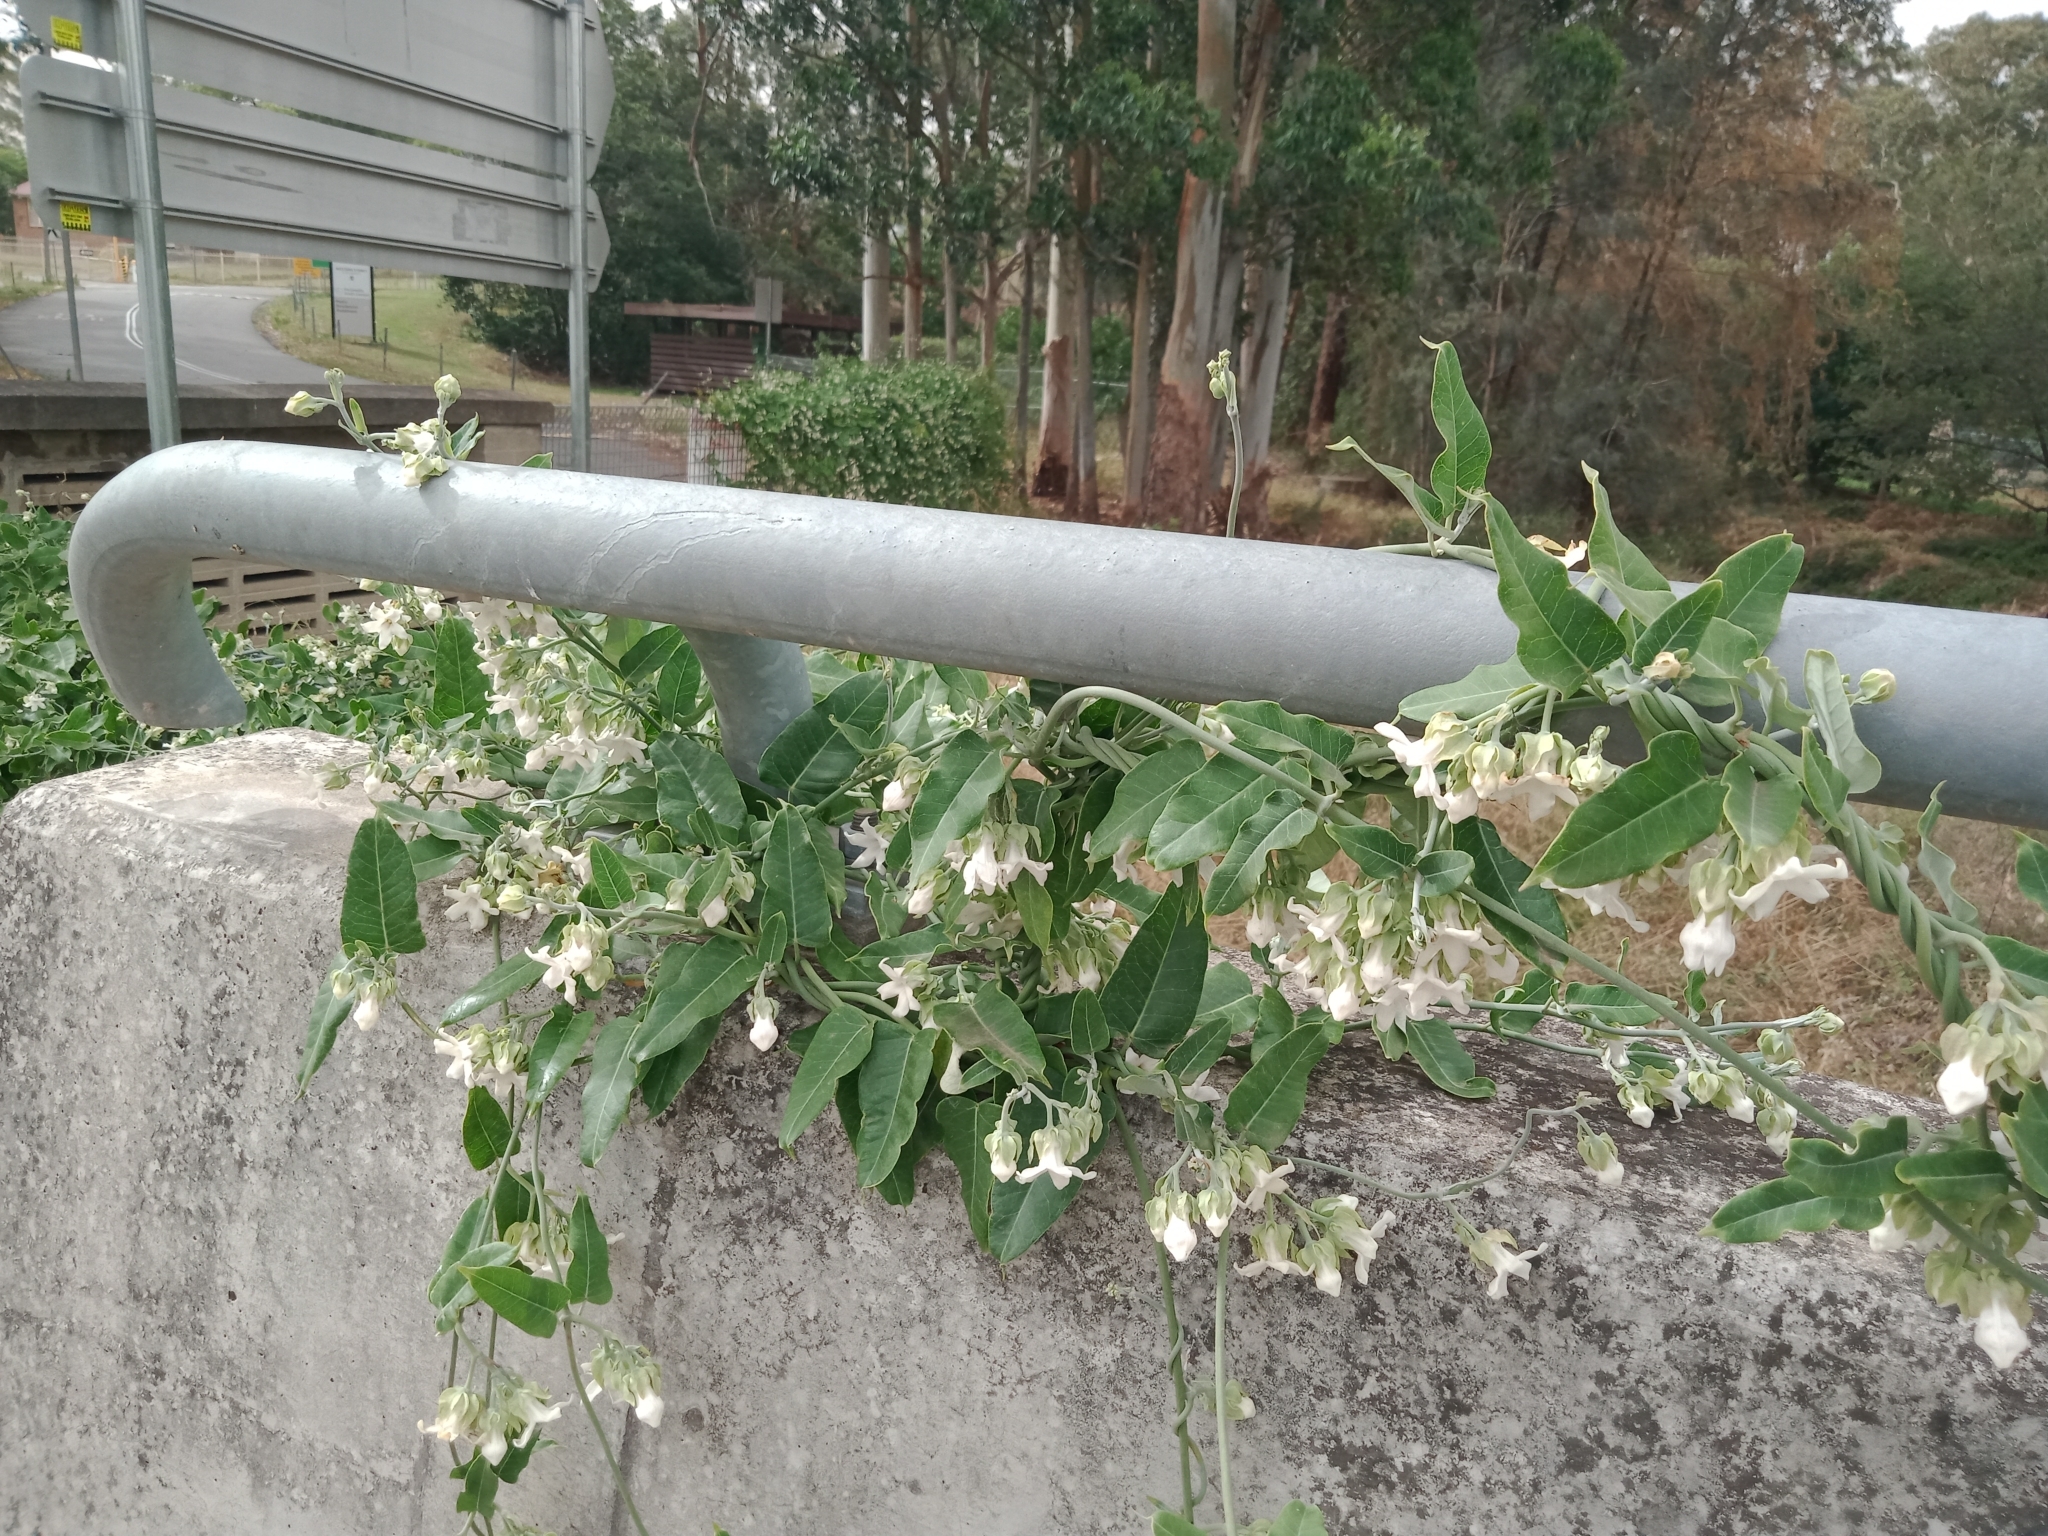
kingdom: Plantae
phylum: Tracheophyta
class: Magnoliopsida
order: Gentianales
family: Apocynaceae
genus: Araujia
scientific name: Araujia sericifera
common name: White bladderflower
